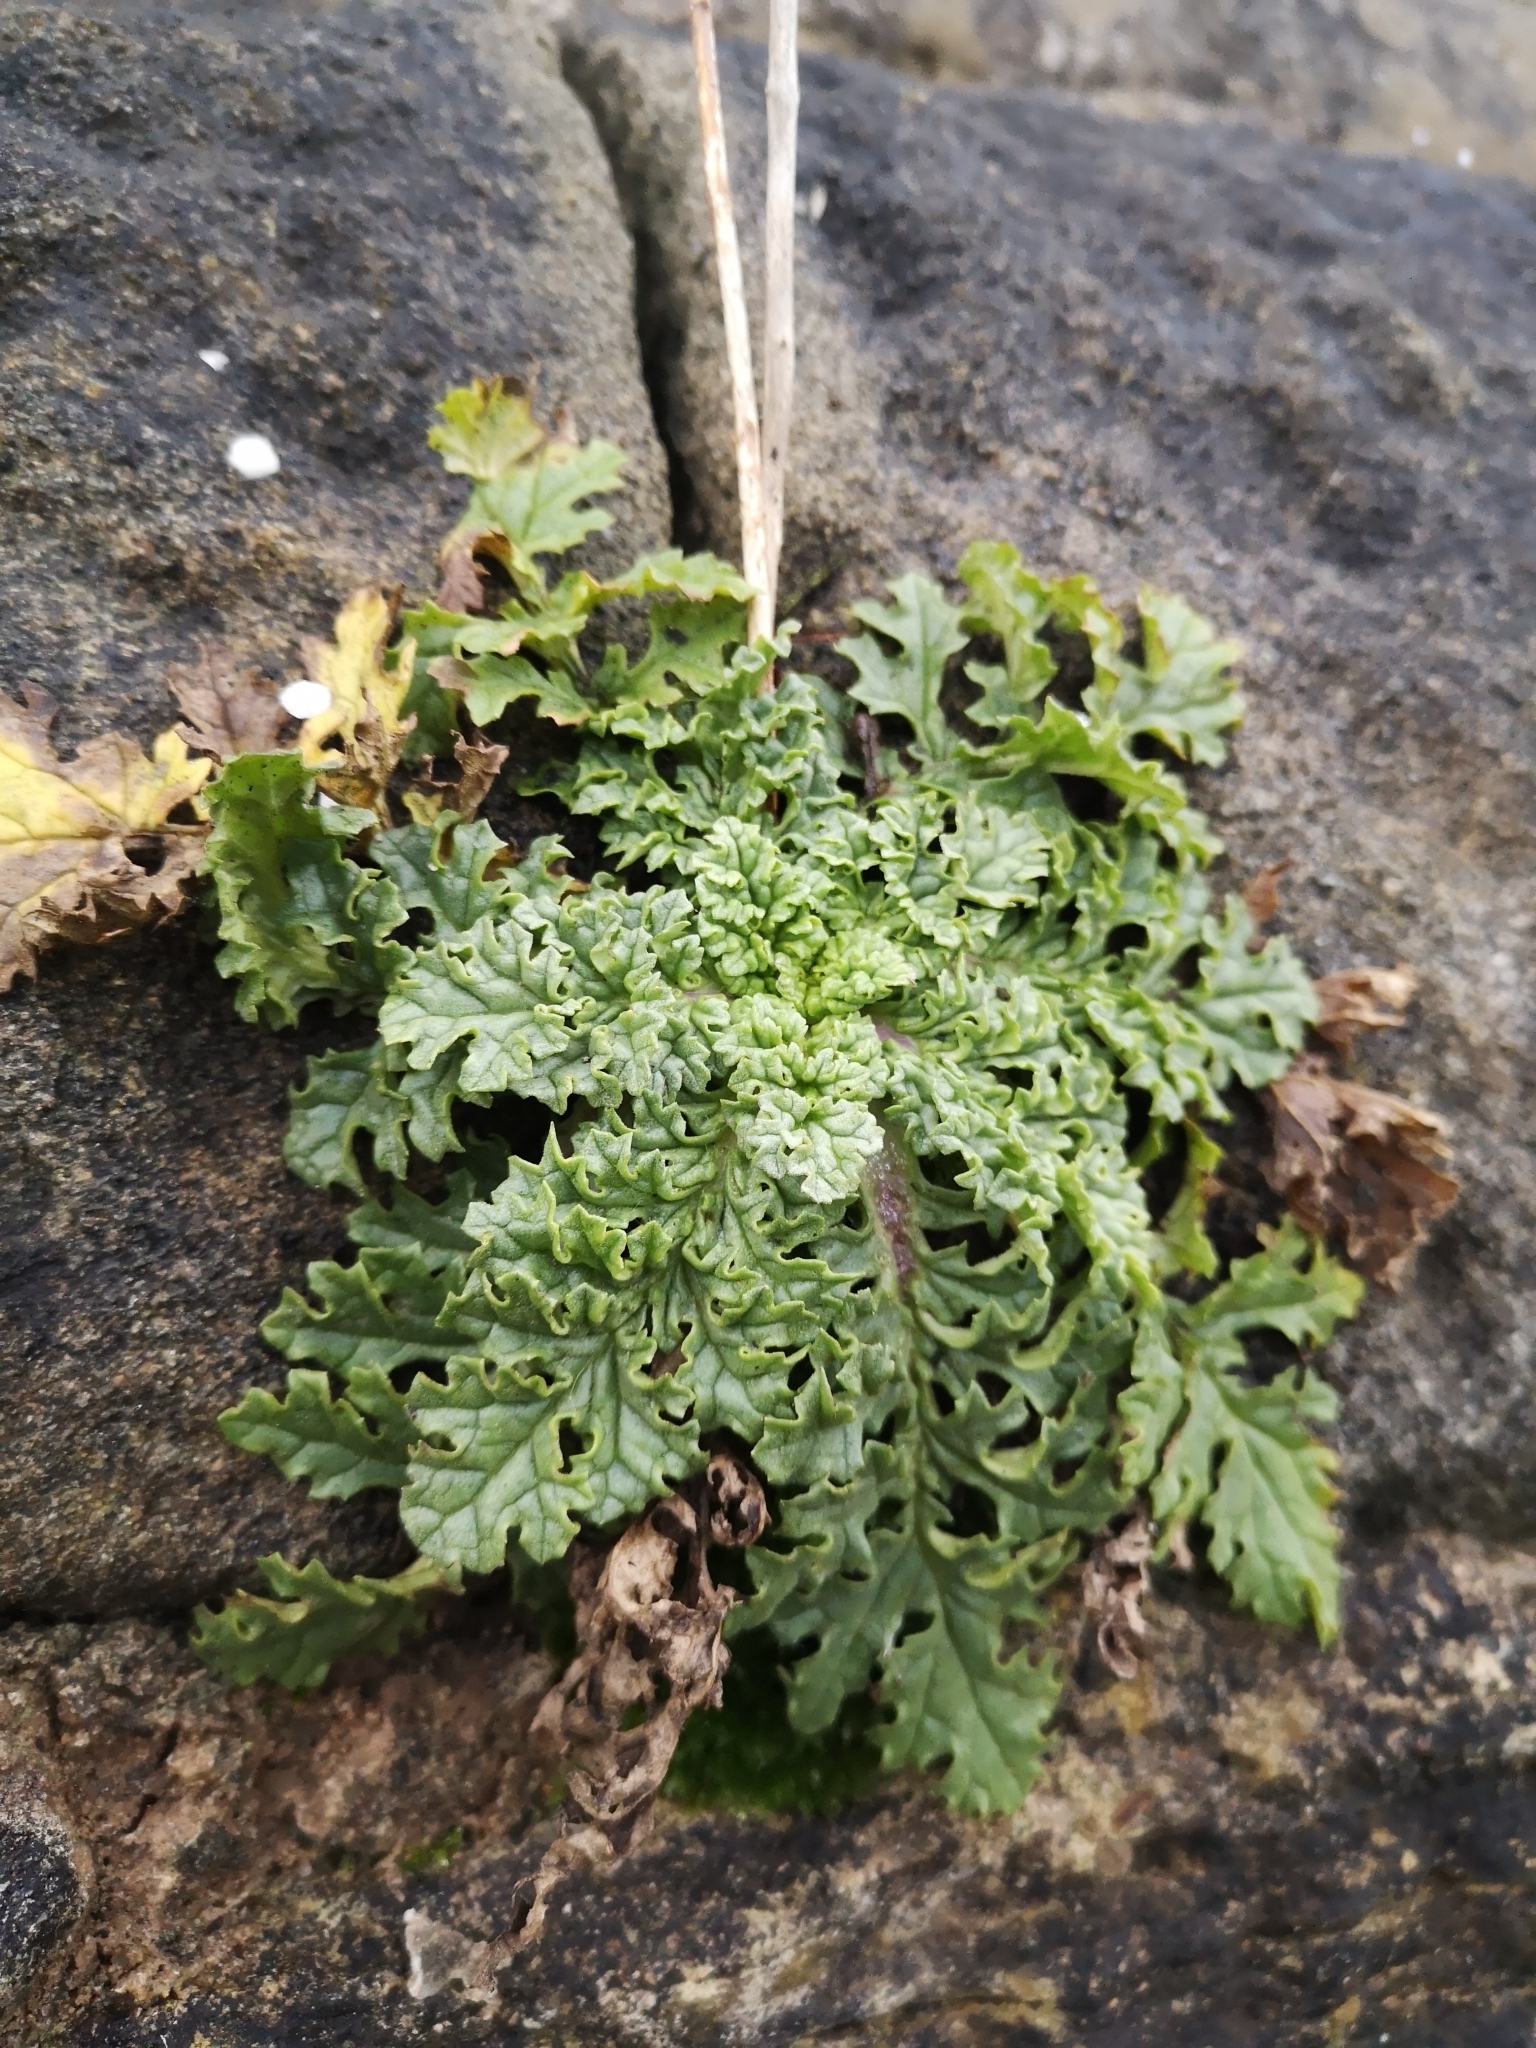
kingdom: Plantae
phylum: Tracheophyta
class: Magnoliopsida
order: Asterales
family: Asteraceae
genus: Jacobaea
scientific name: Jacobaea vulgaris
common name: Stinking willie
